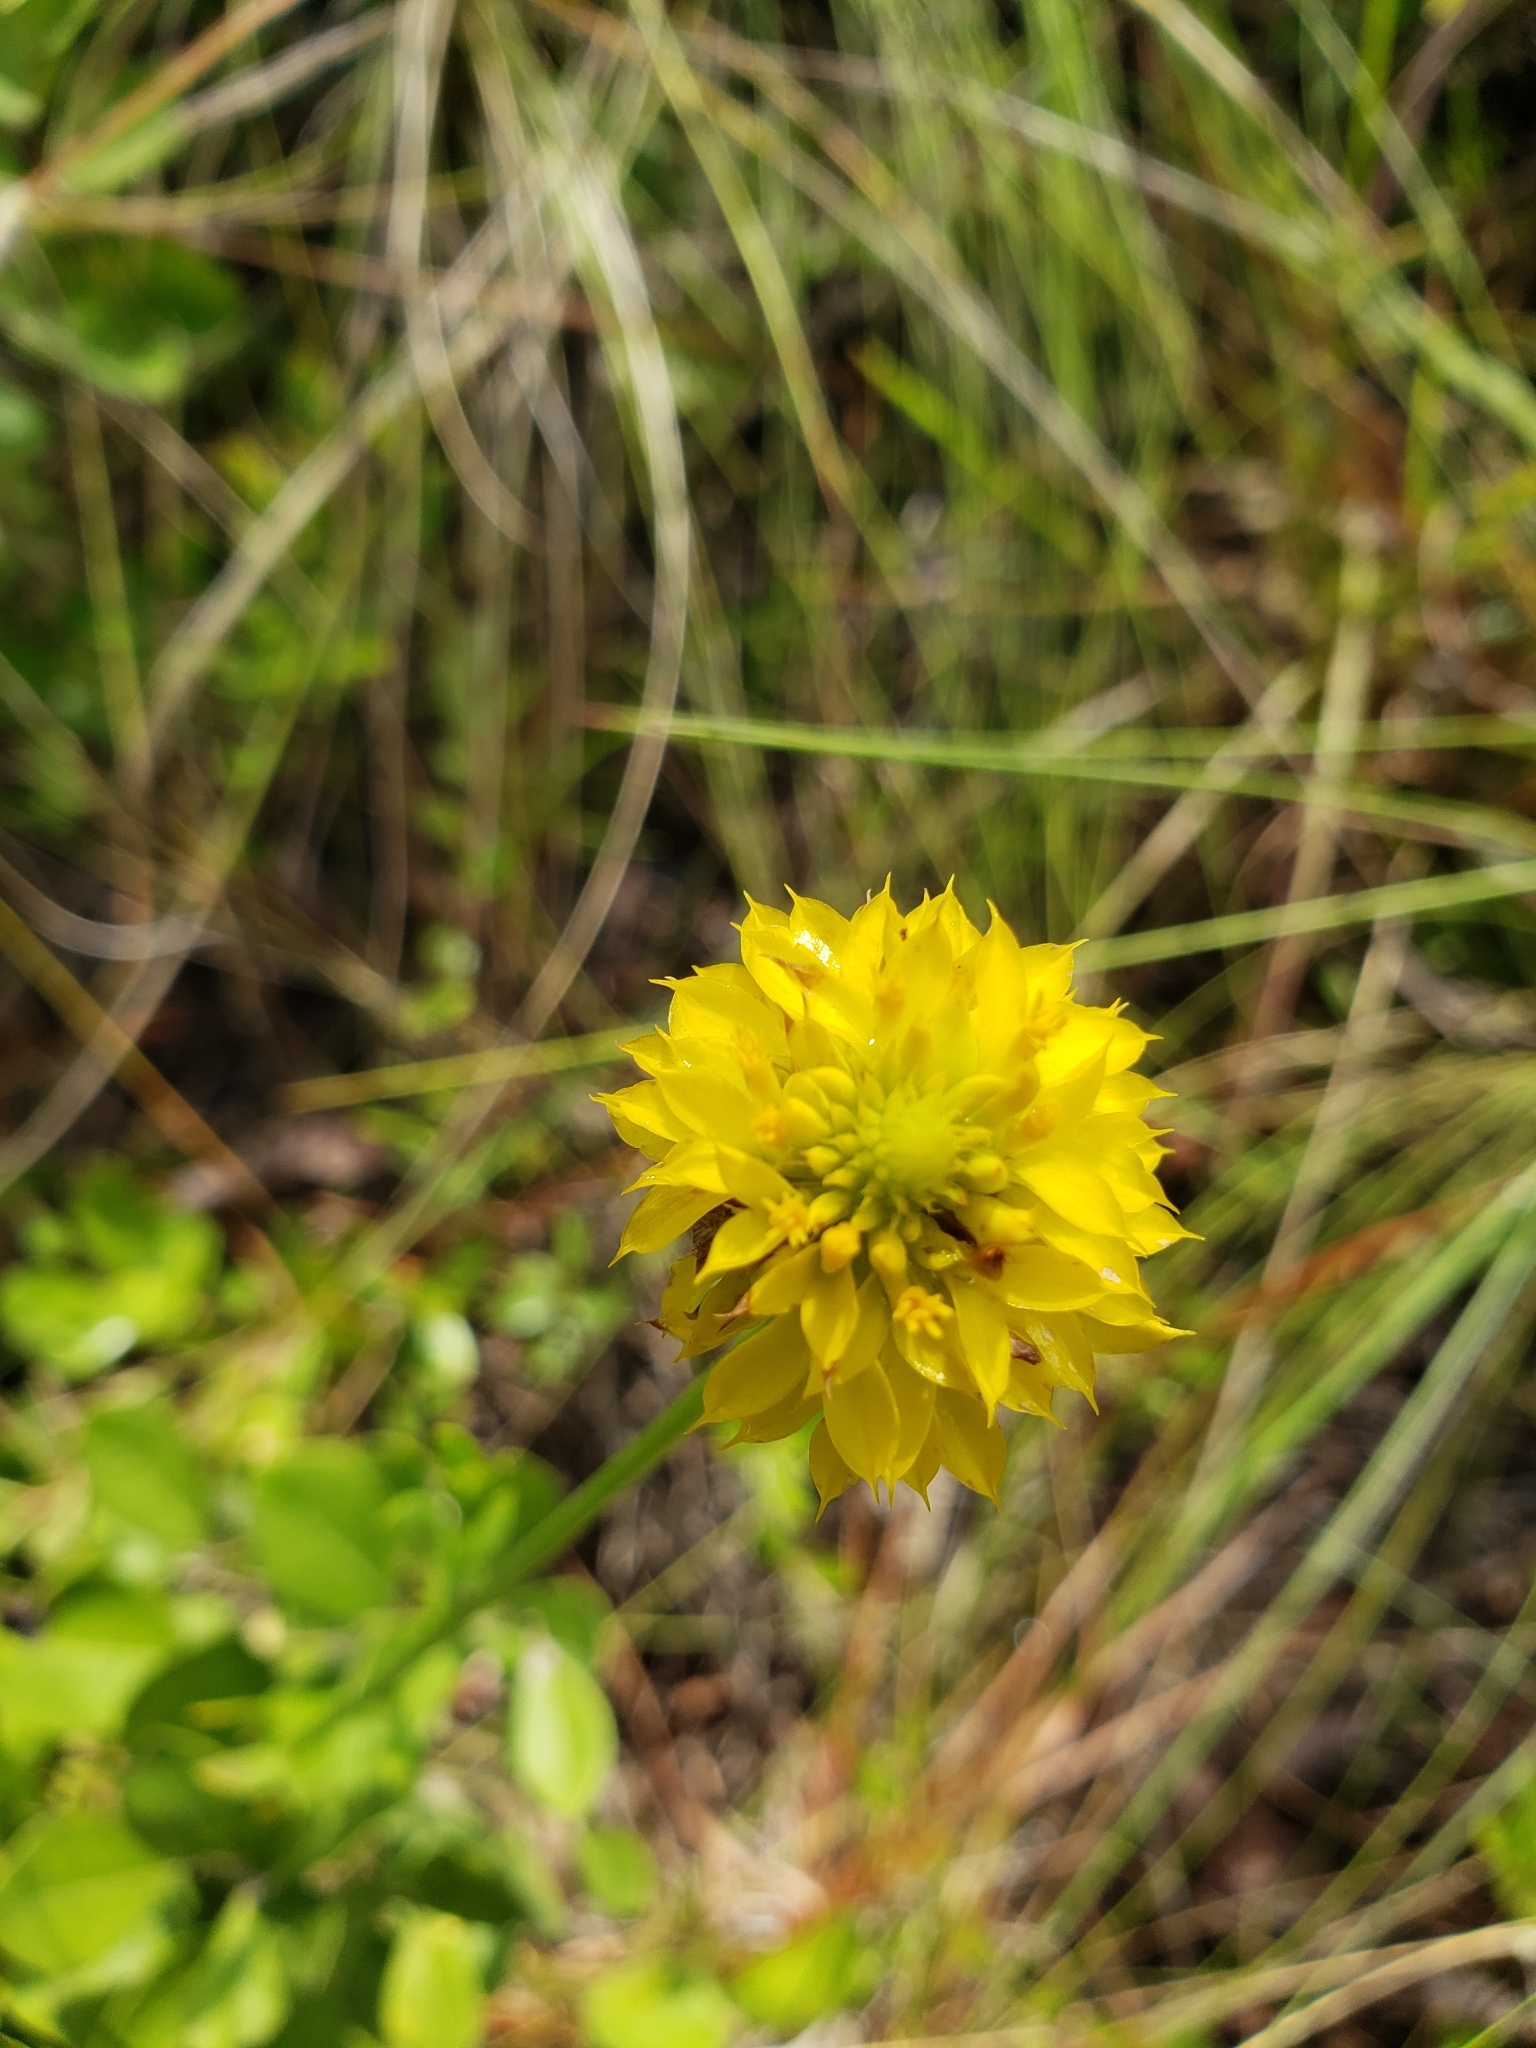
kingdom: Plantae
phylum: Tracheophyta
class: Magnoliopsida
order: Fabales
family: Polygalaceae
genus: Polygala
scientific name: Polygala rugelii
